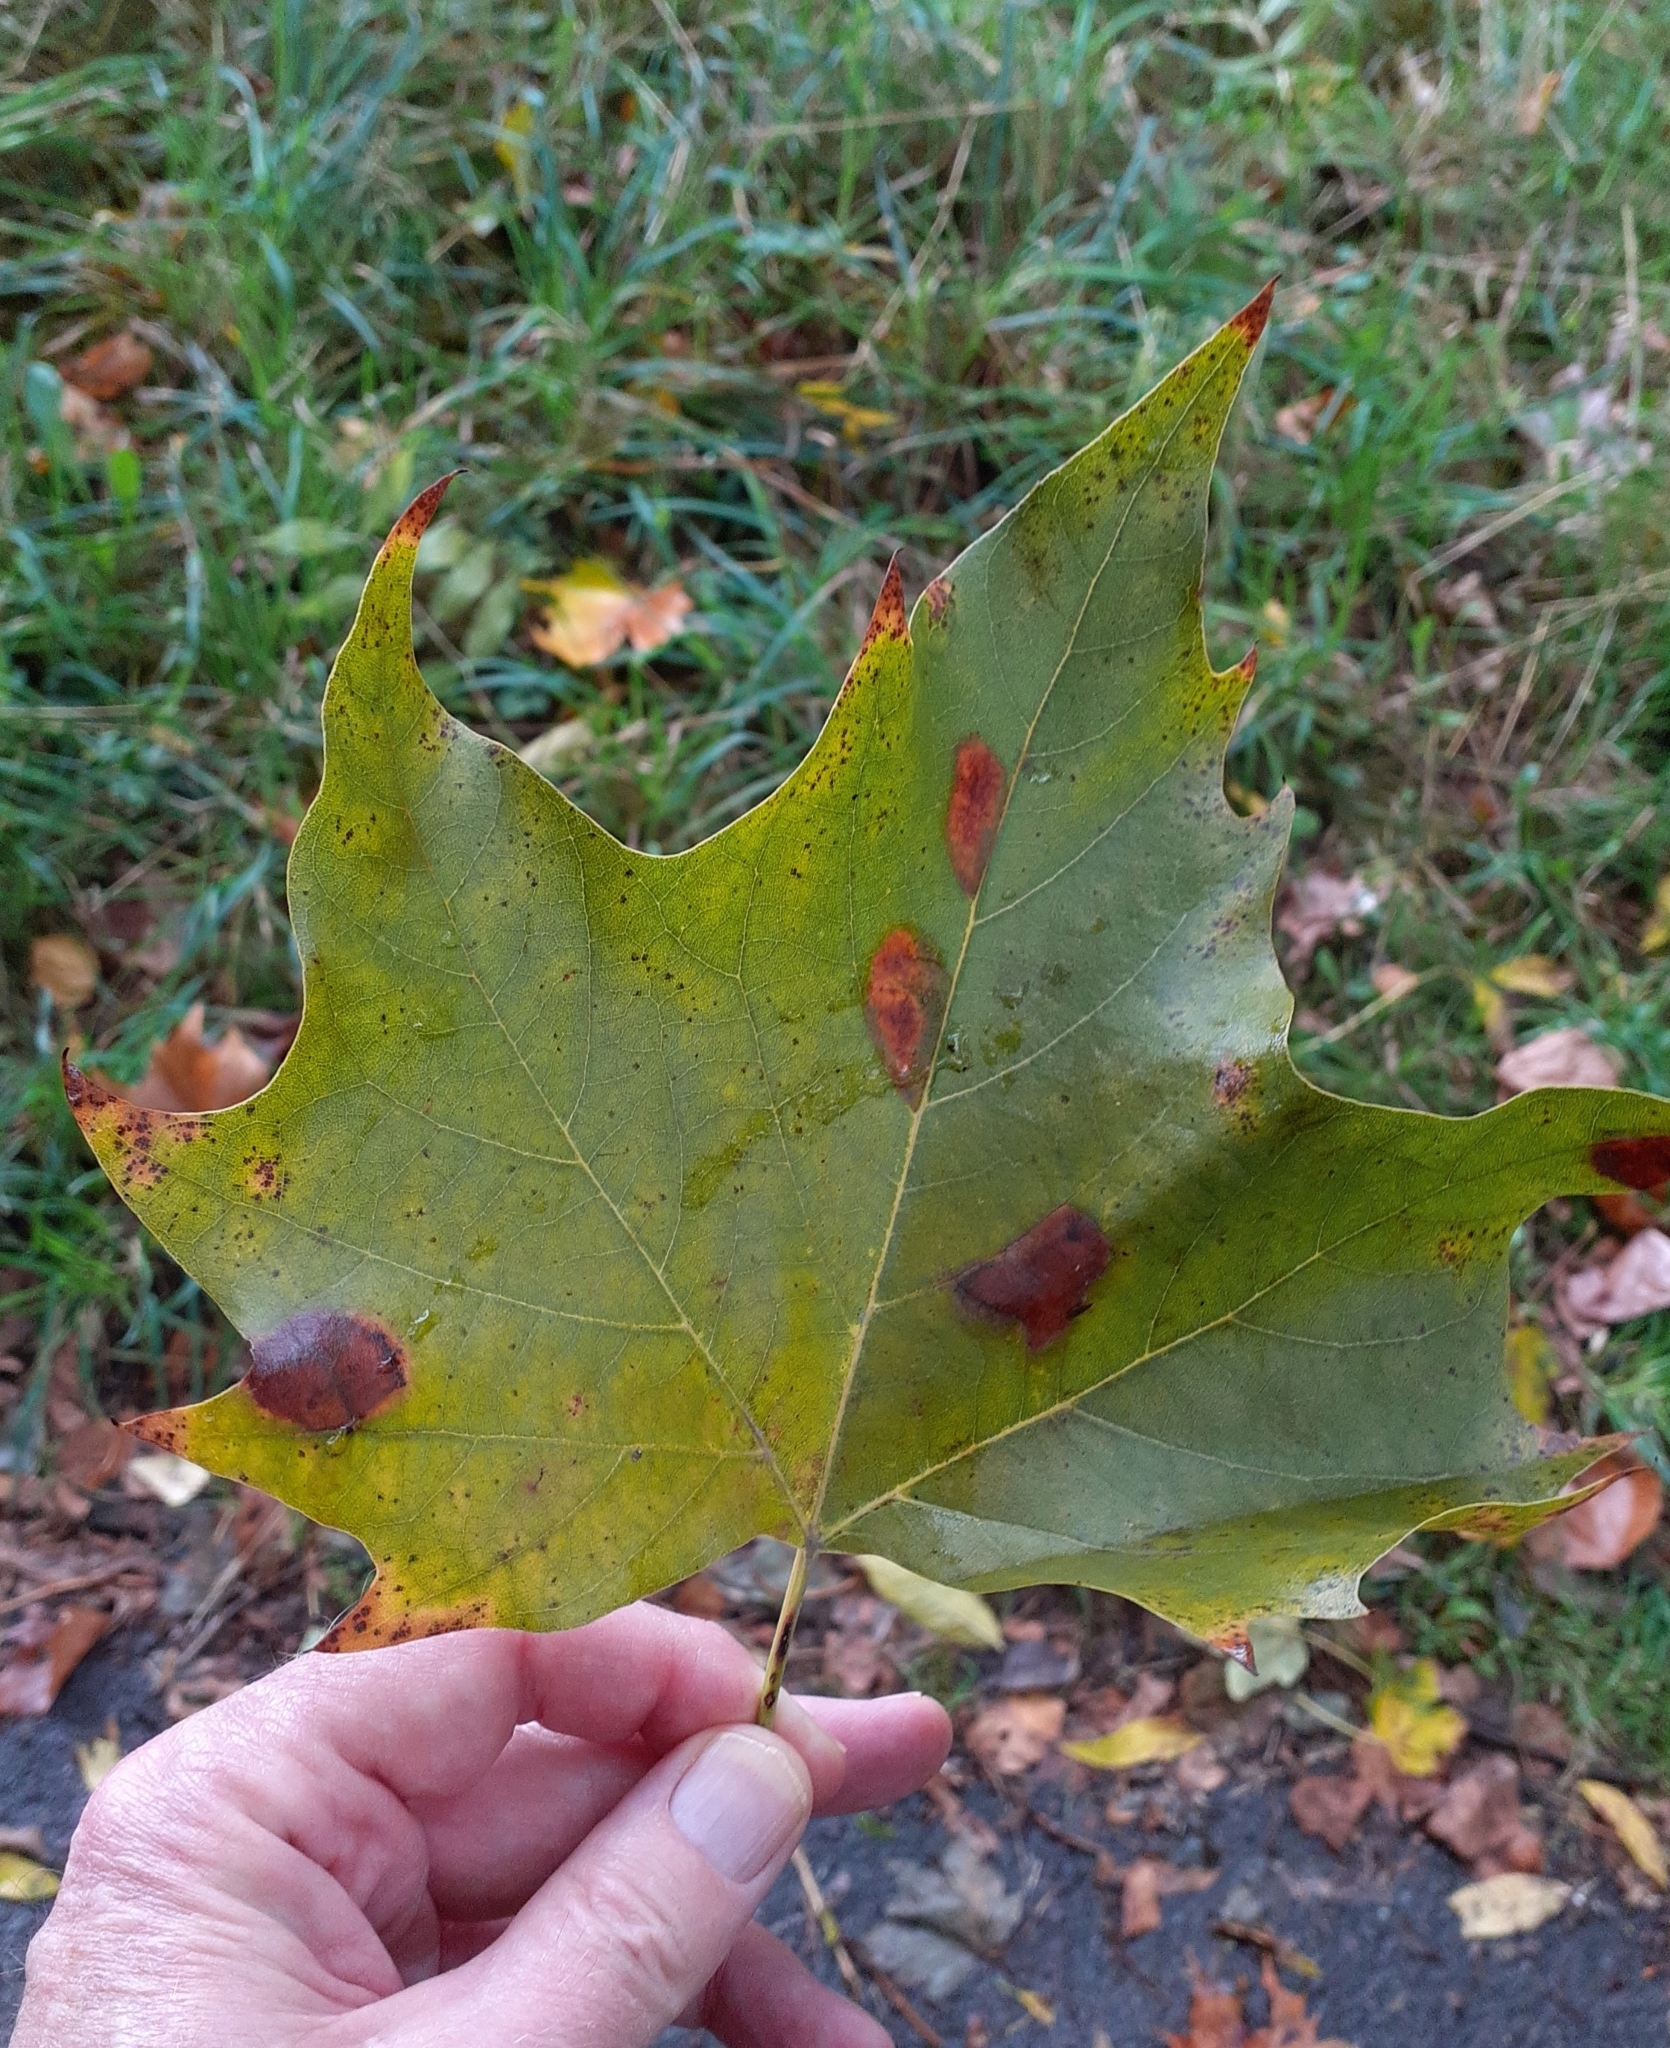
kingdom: Animalia
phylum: Arthropoda
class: Insecta
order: Lepidoptera
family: Gracillariidae
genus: Phyllonorycter
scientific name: Phyllonorycter platani
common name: London midget
